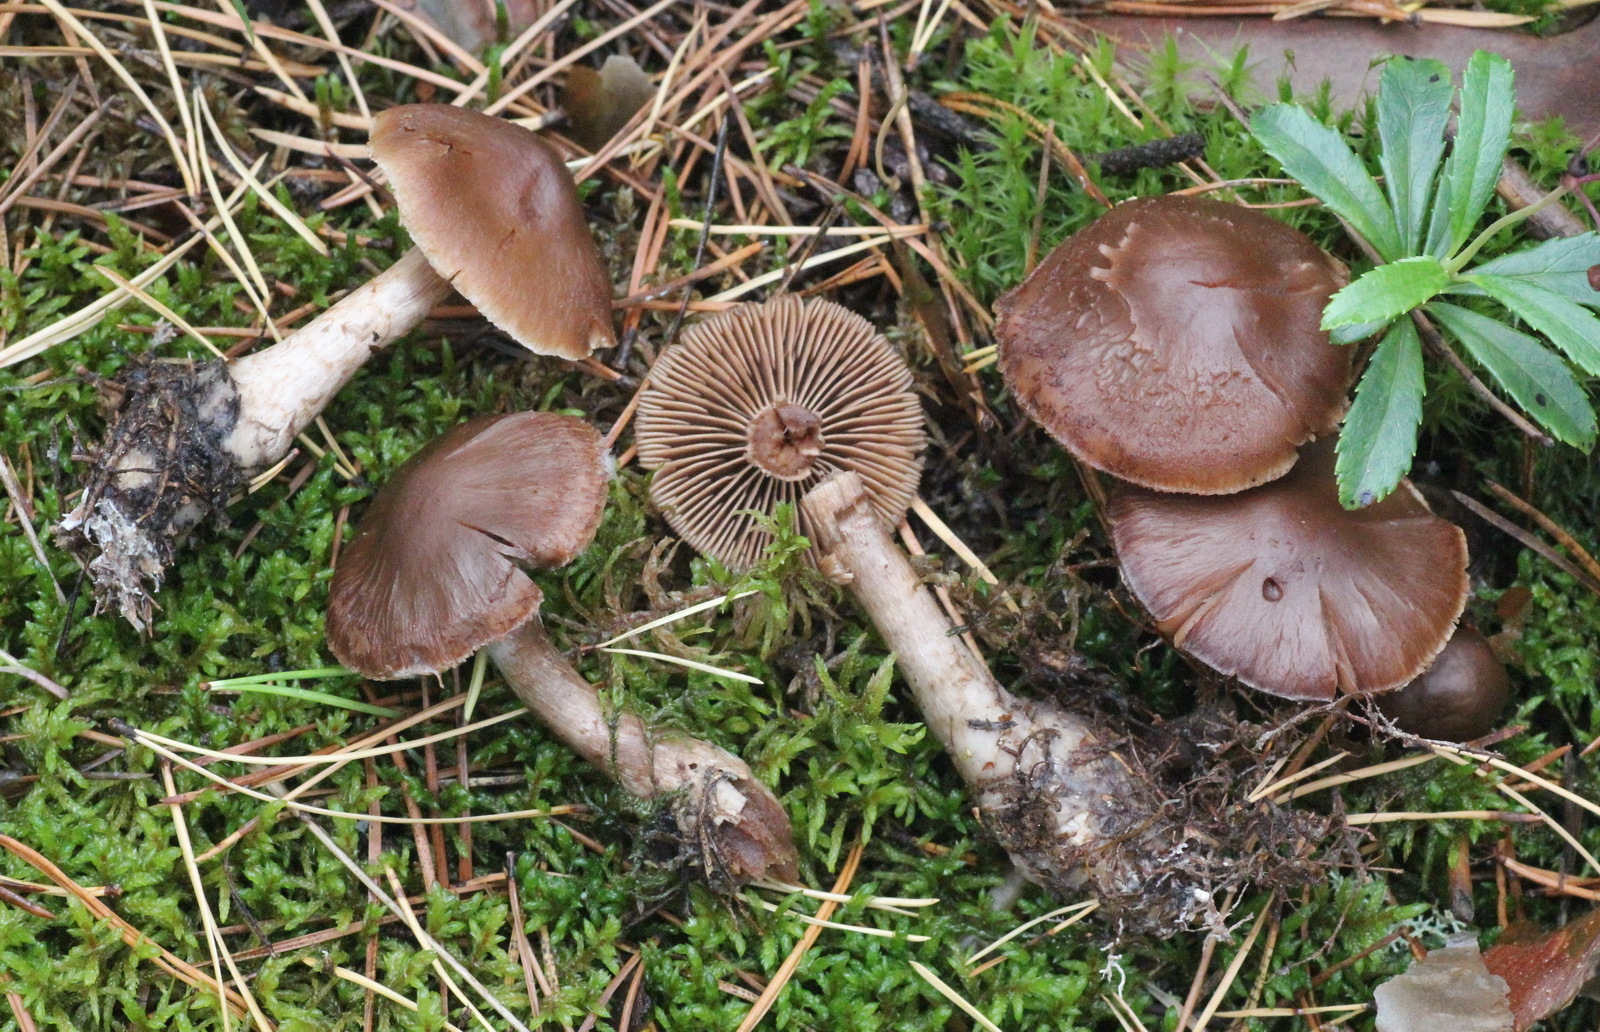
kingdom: Fungi
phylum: Basidiomycota
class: Agaricomycetes
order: Agaricales
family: Cortinariaceae
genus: Cortinarius
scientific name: Cortinarius glandicolor
